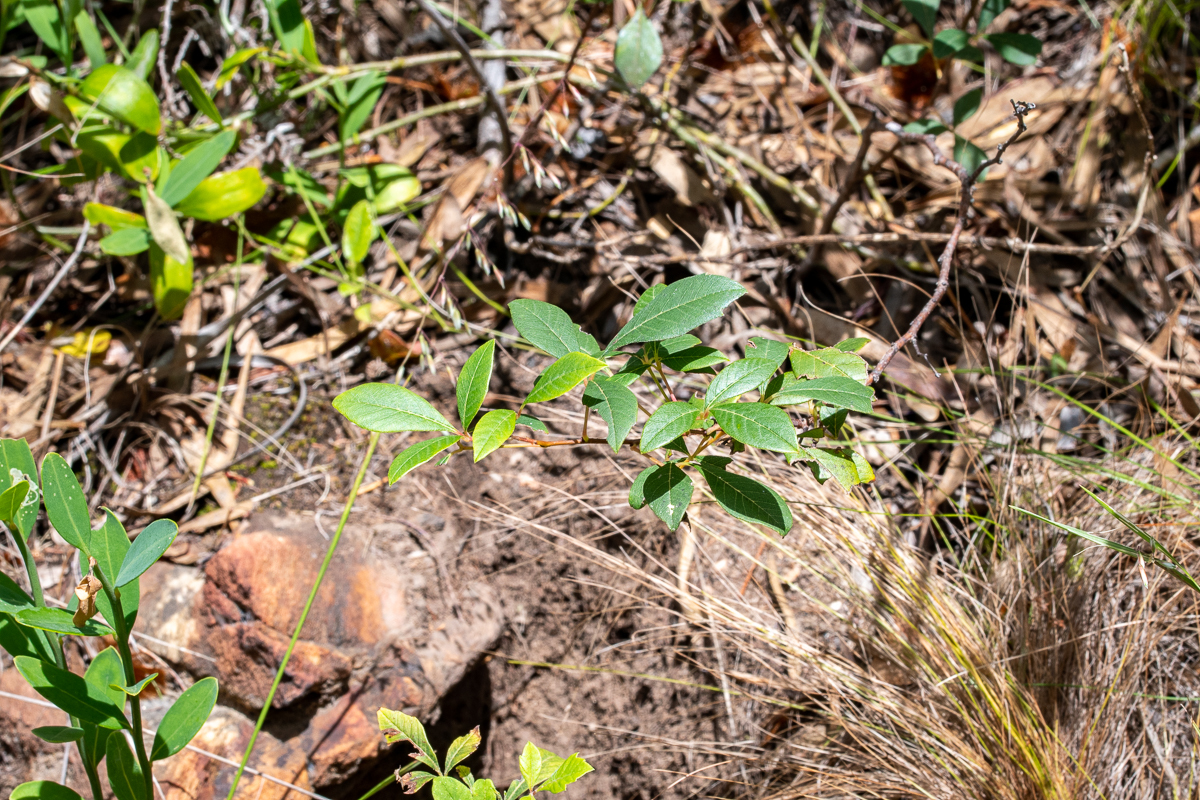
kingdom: Plantae
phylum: Tracheophyta
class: Magnoliopsida
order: Sapindales
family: Anacardiaceae
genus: Searsia
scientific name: Searsia tomentosa
